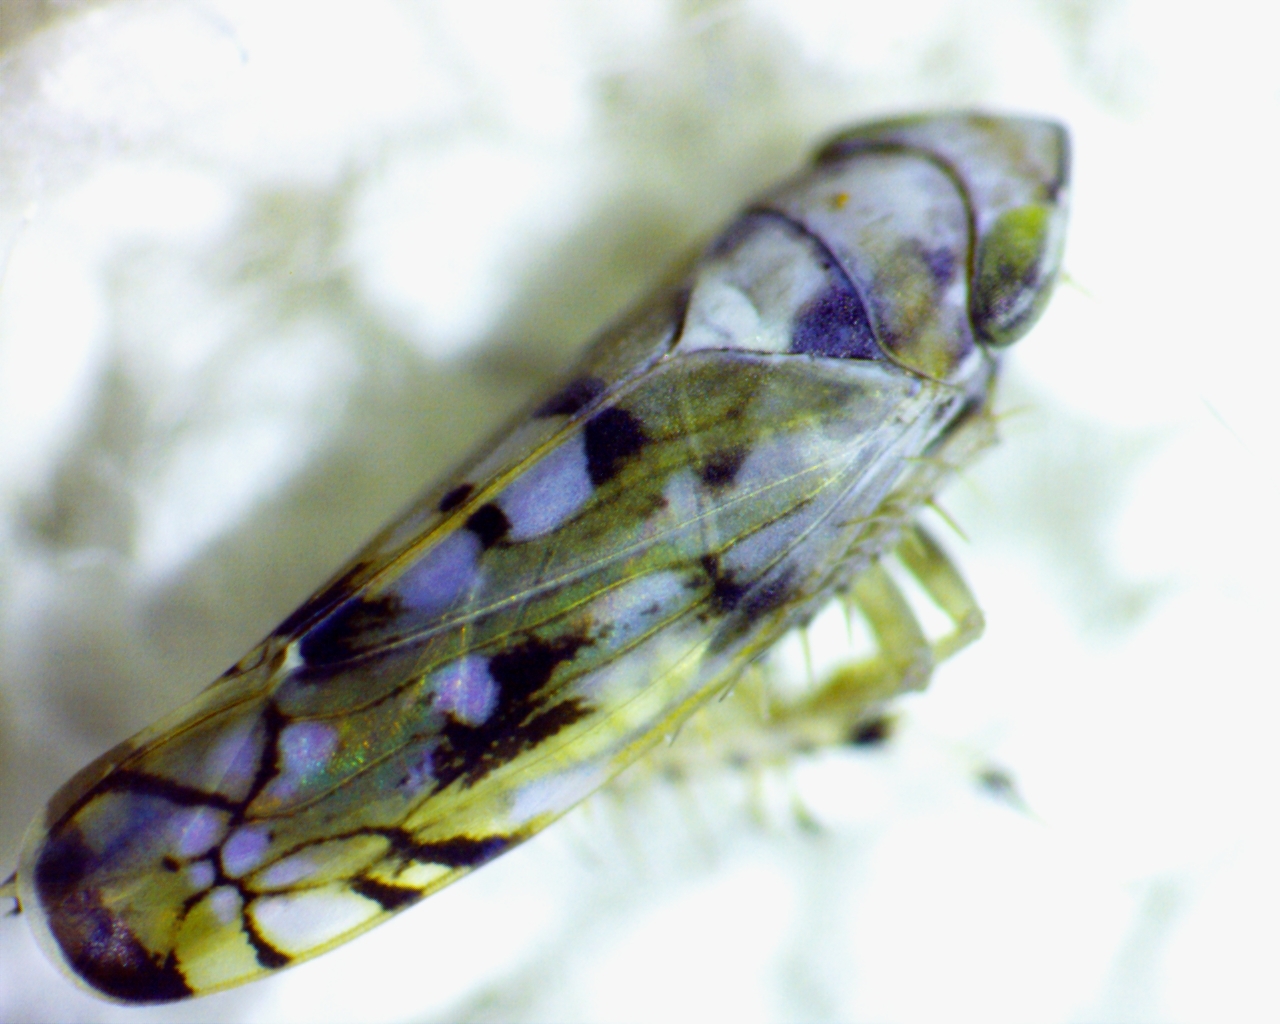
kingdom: Animalia
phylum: Arthropoda
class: Insecta
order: Hemiptera
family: Cicadellidae
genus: Scaphoideus
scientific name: Scaphoideus opalinus
